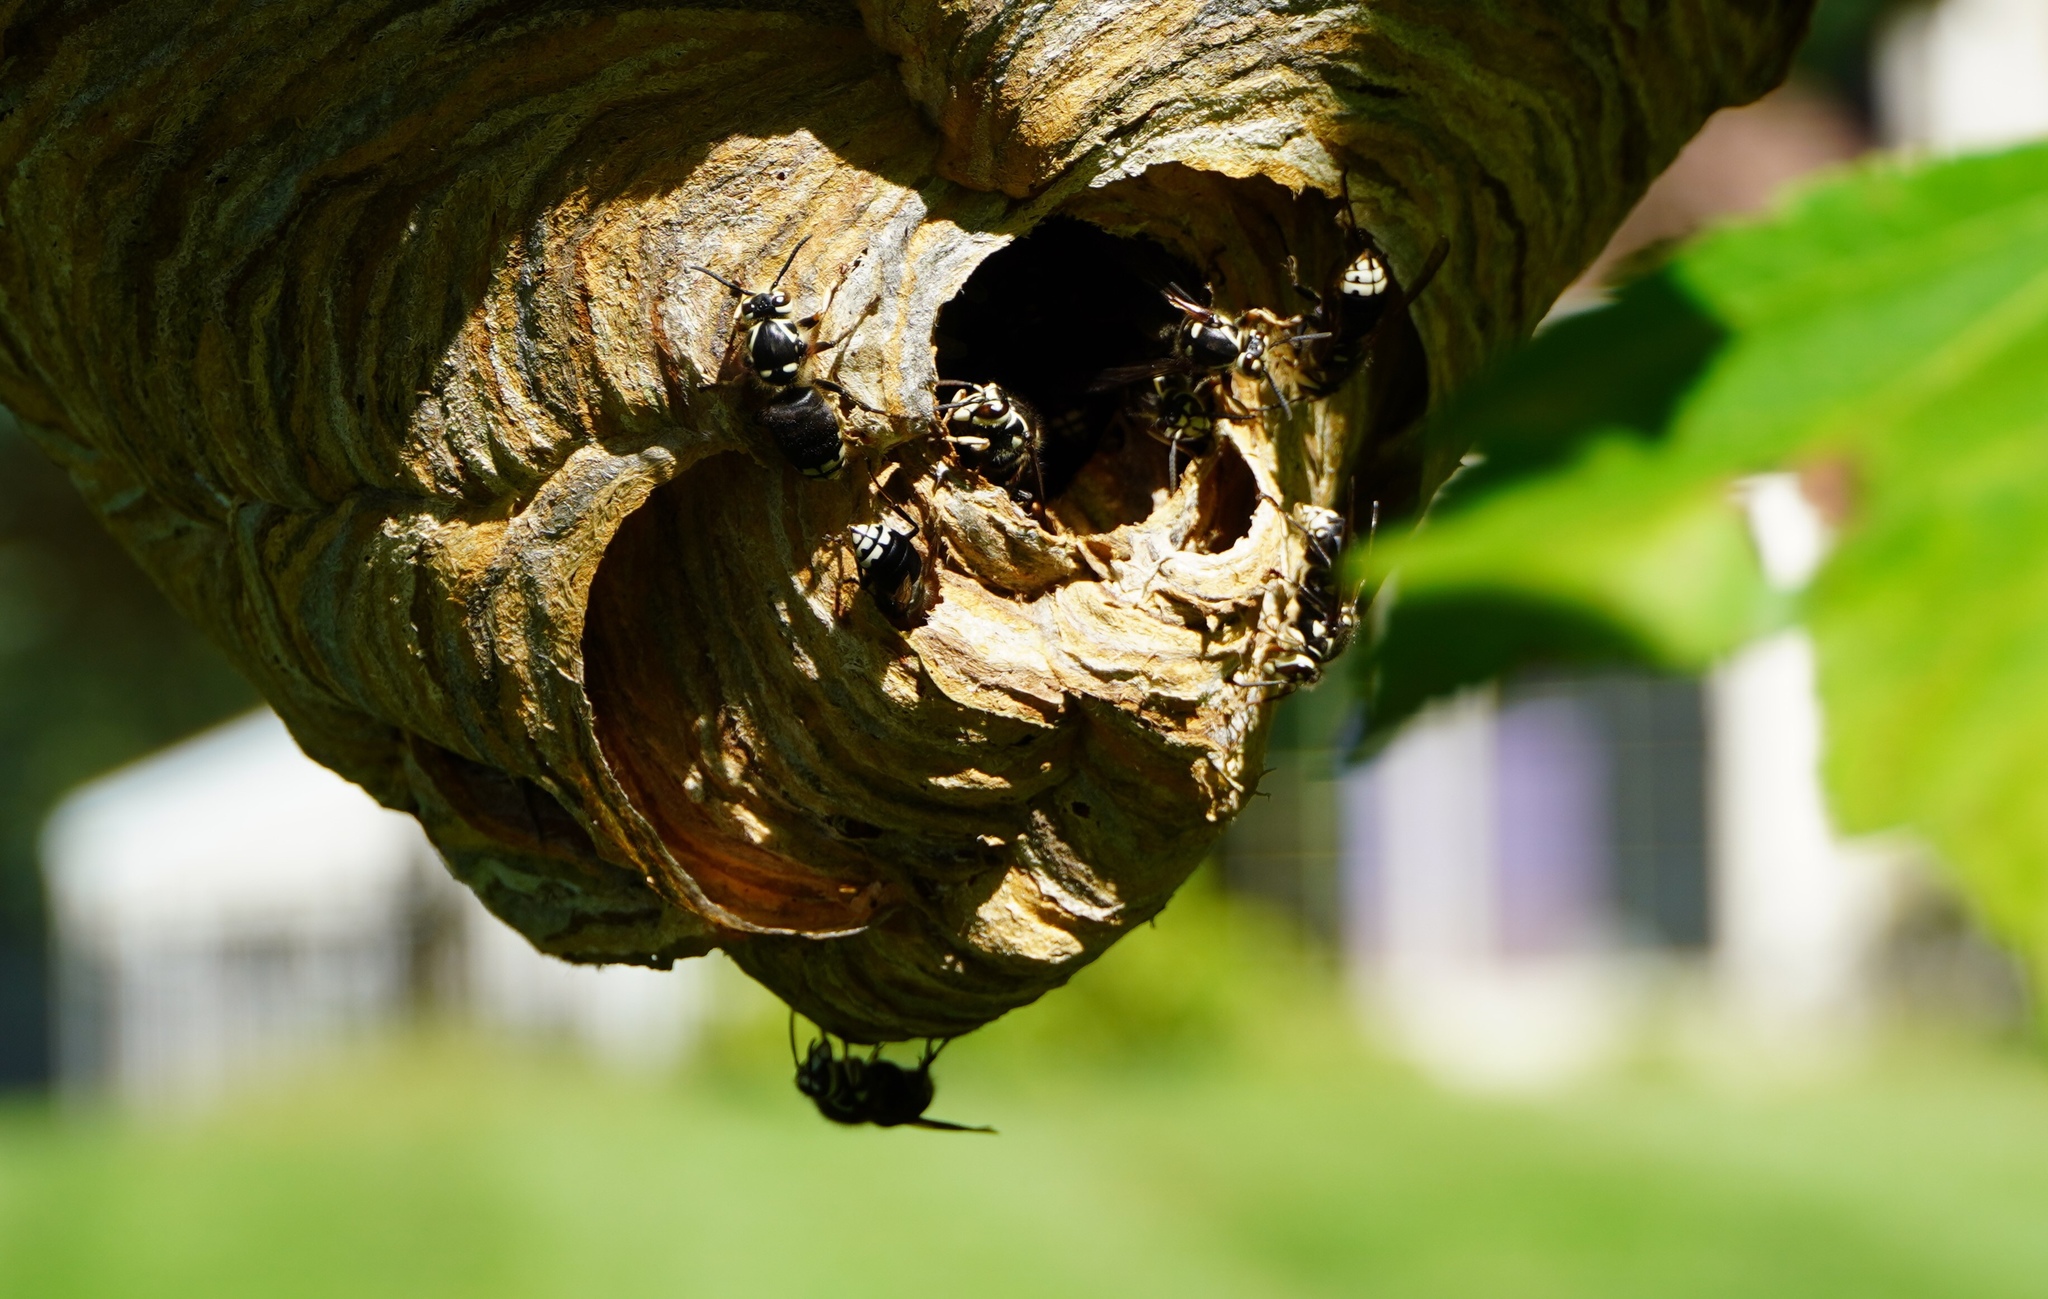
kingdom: Animalia
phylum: Arthropoda
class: Insecta
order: Hymenoptera
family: Vespidae
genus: Dolichovespula
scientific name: Dolichovespula maculata
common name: Bald-faced hornet
